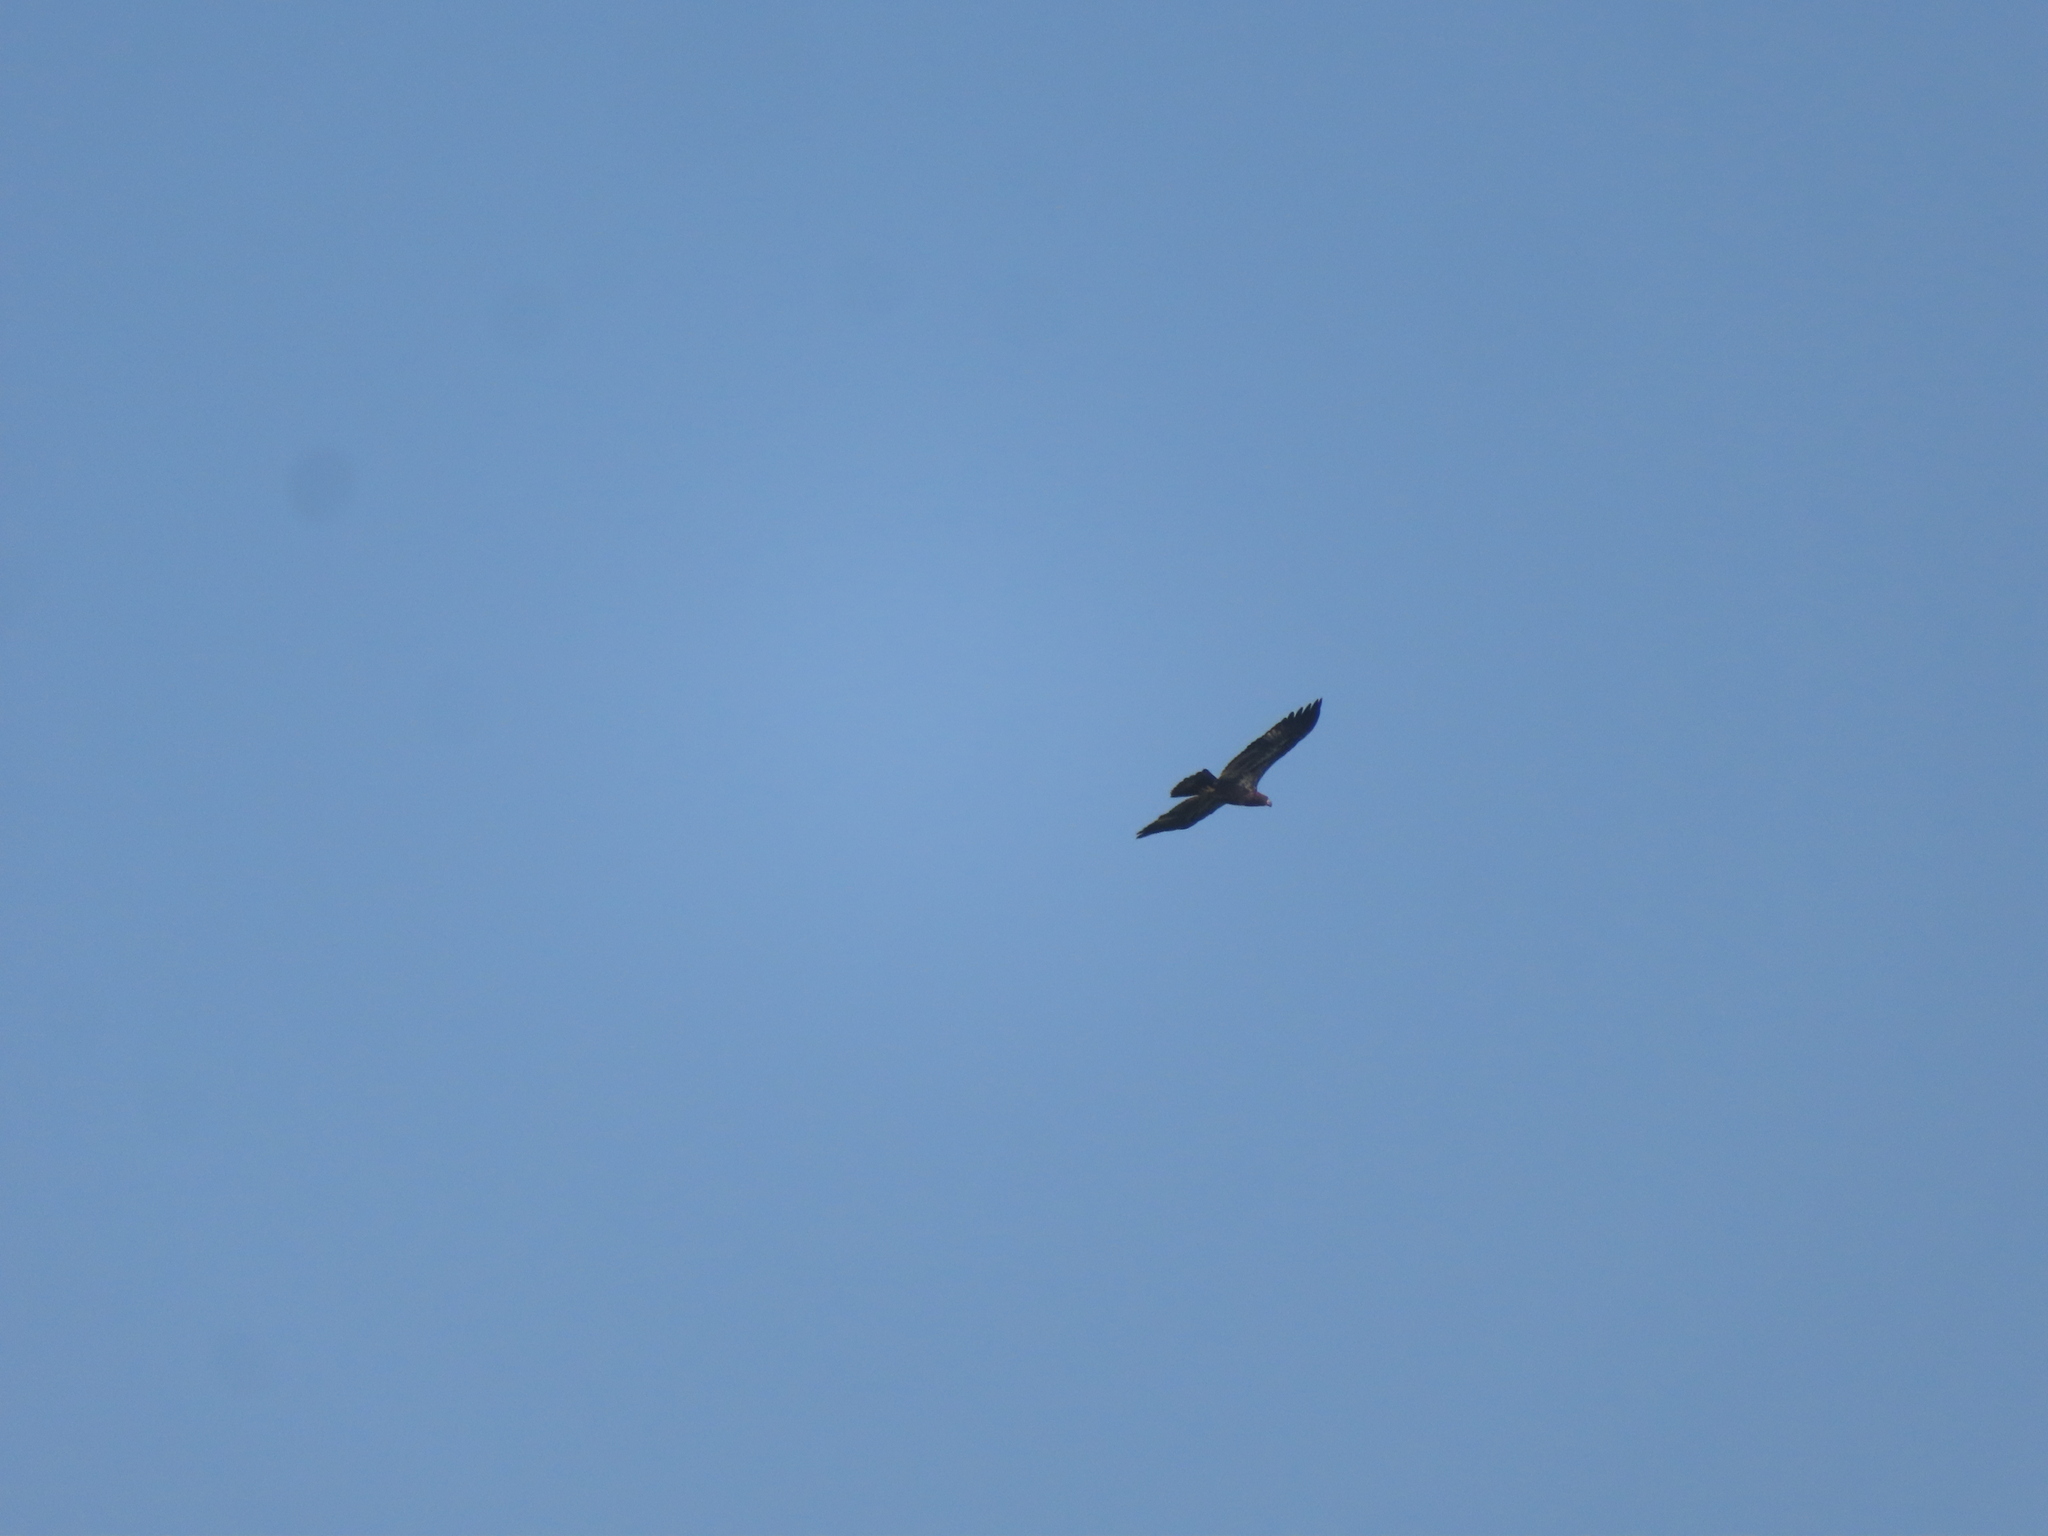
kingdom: Animalia
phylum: Chordata
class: Aves
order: Accipitriformes
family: Accipitridae
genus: Haliaeetus
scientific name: Haliaeetus leucocephalus
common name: Bald eagle
